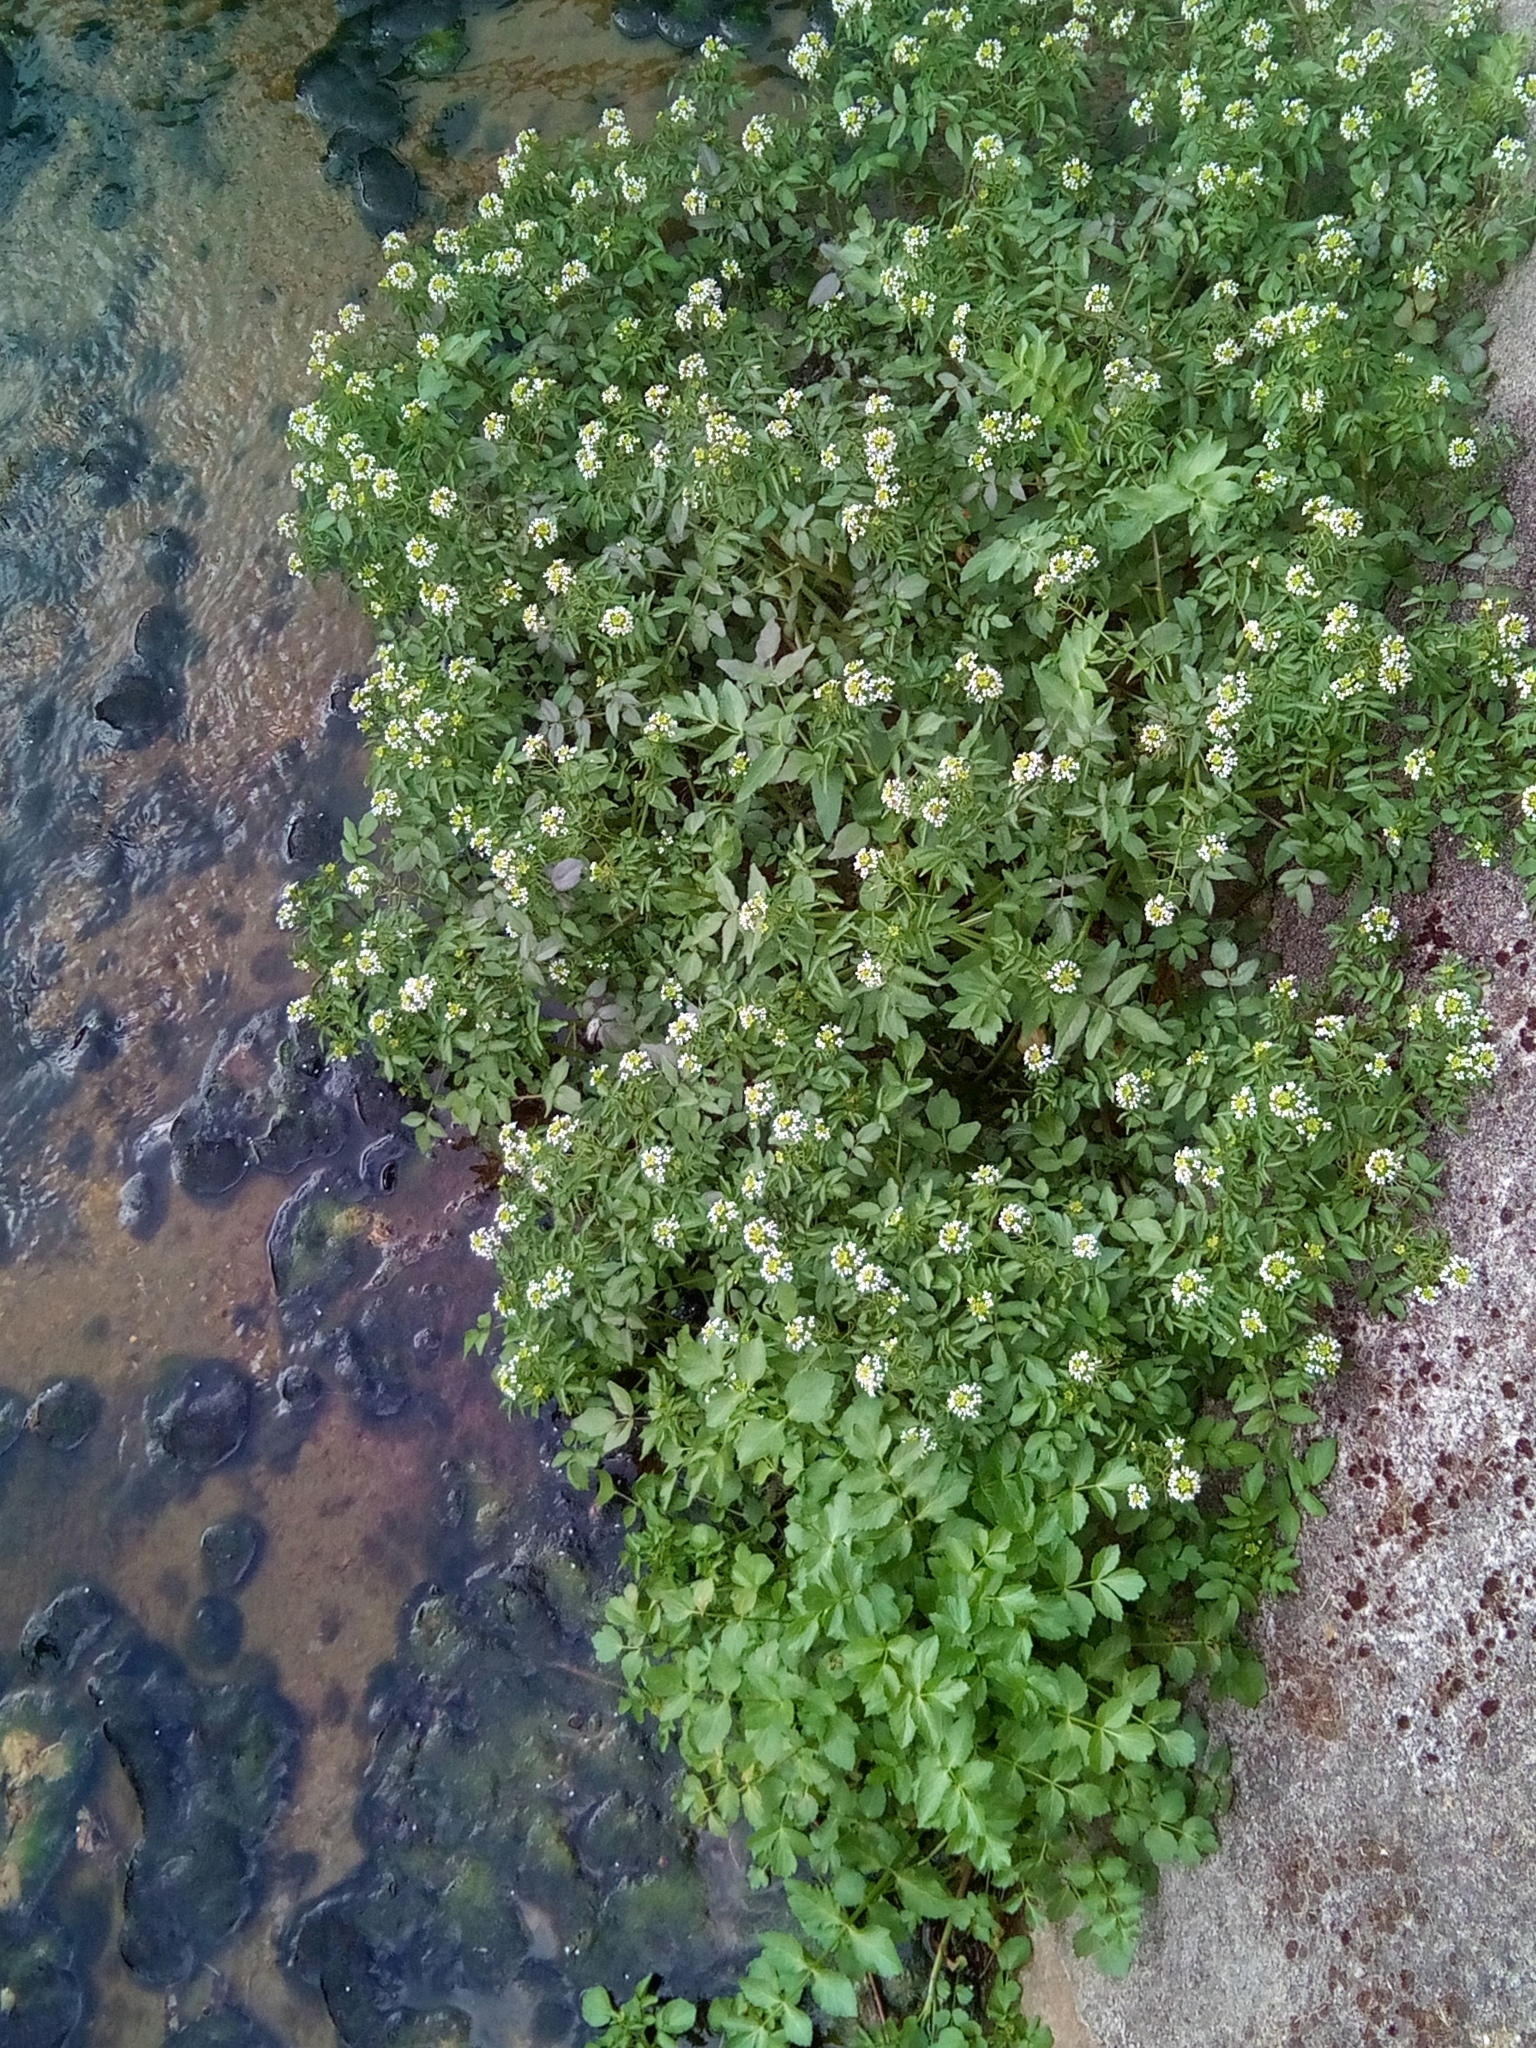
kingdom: Plantae
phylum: Tracheophyta
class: Magnoliopsida
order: Brassicales
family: Brassicaceae
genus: Nasturtium
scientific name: Nasturtium officinale
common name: Watercress
